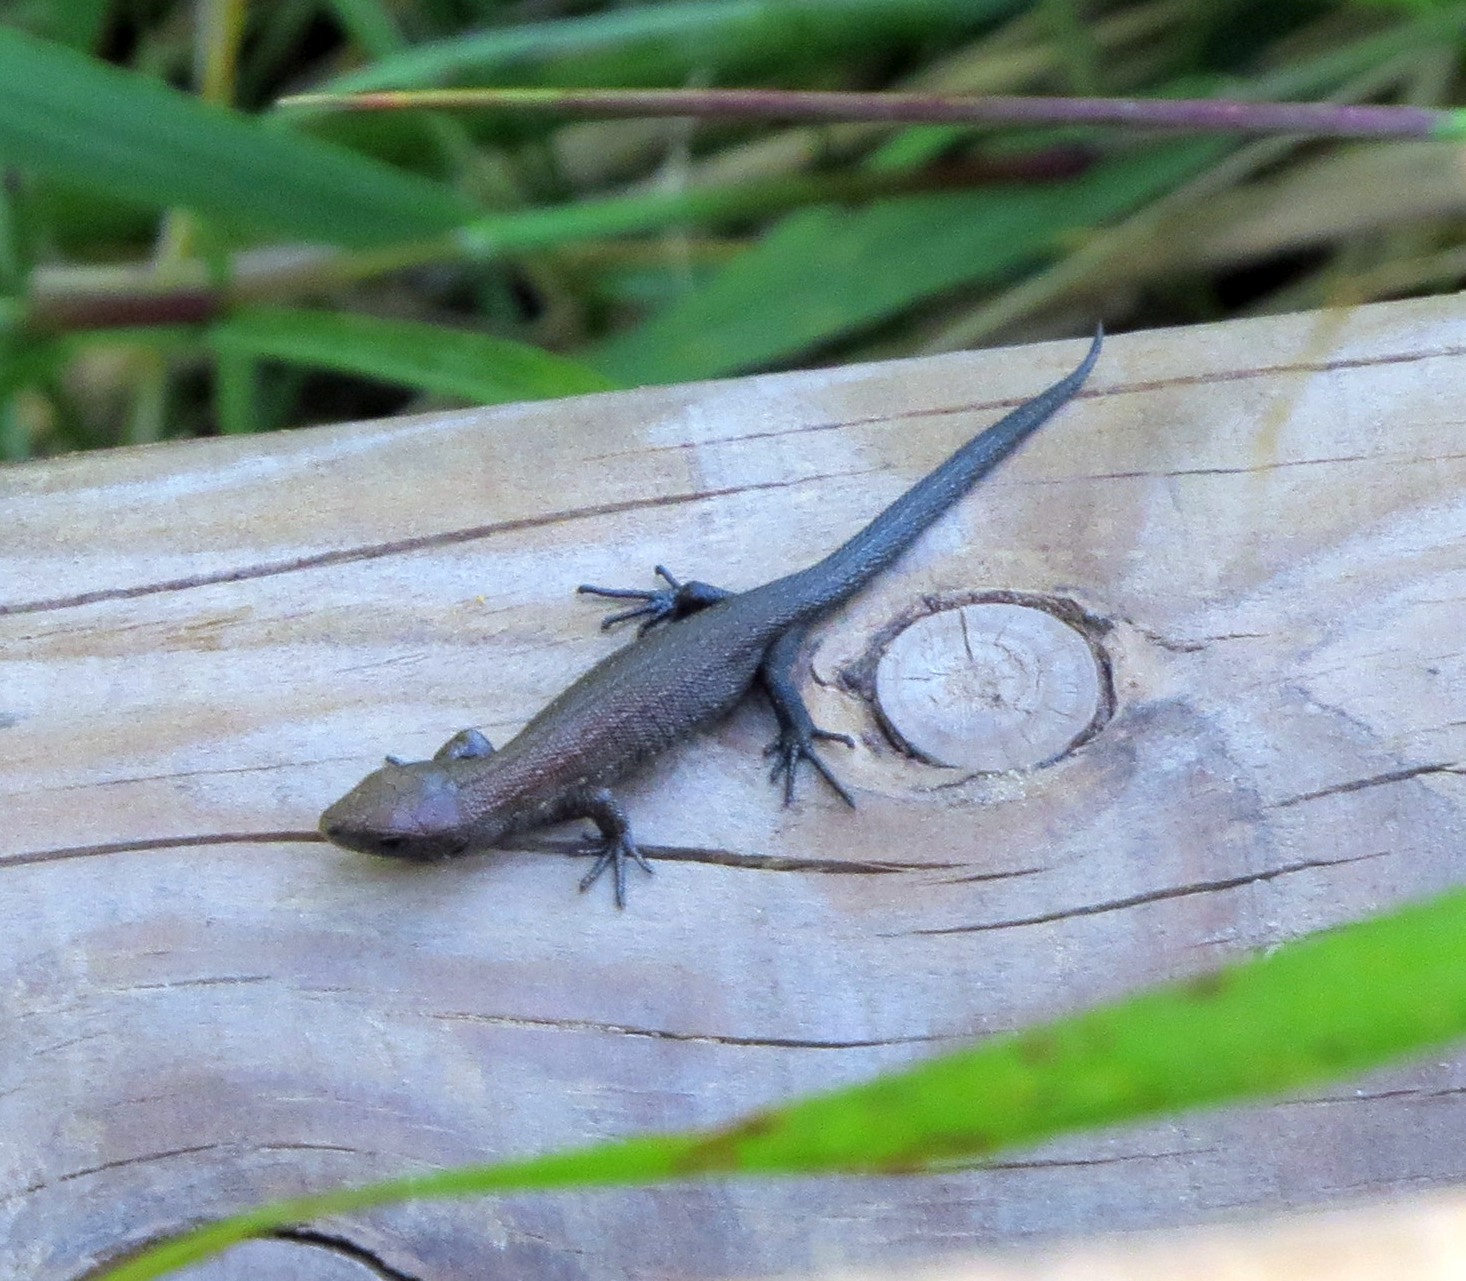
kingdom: Animalia
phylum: Chordata
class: Squamata
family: Lacertidae
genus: Zootoca
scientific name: Zootoca vivipara
